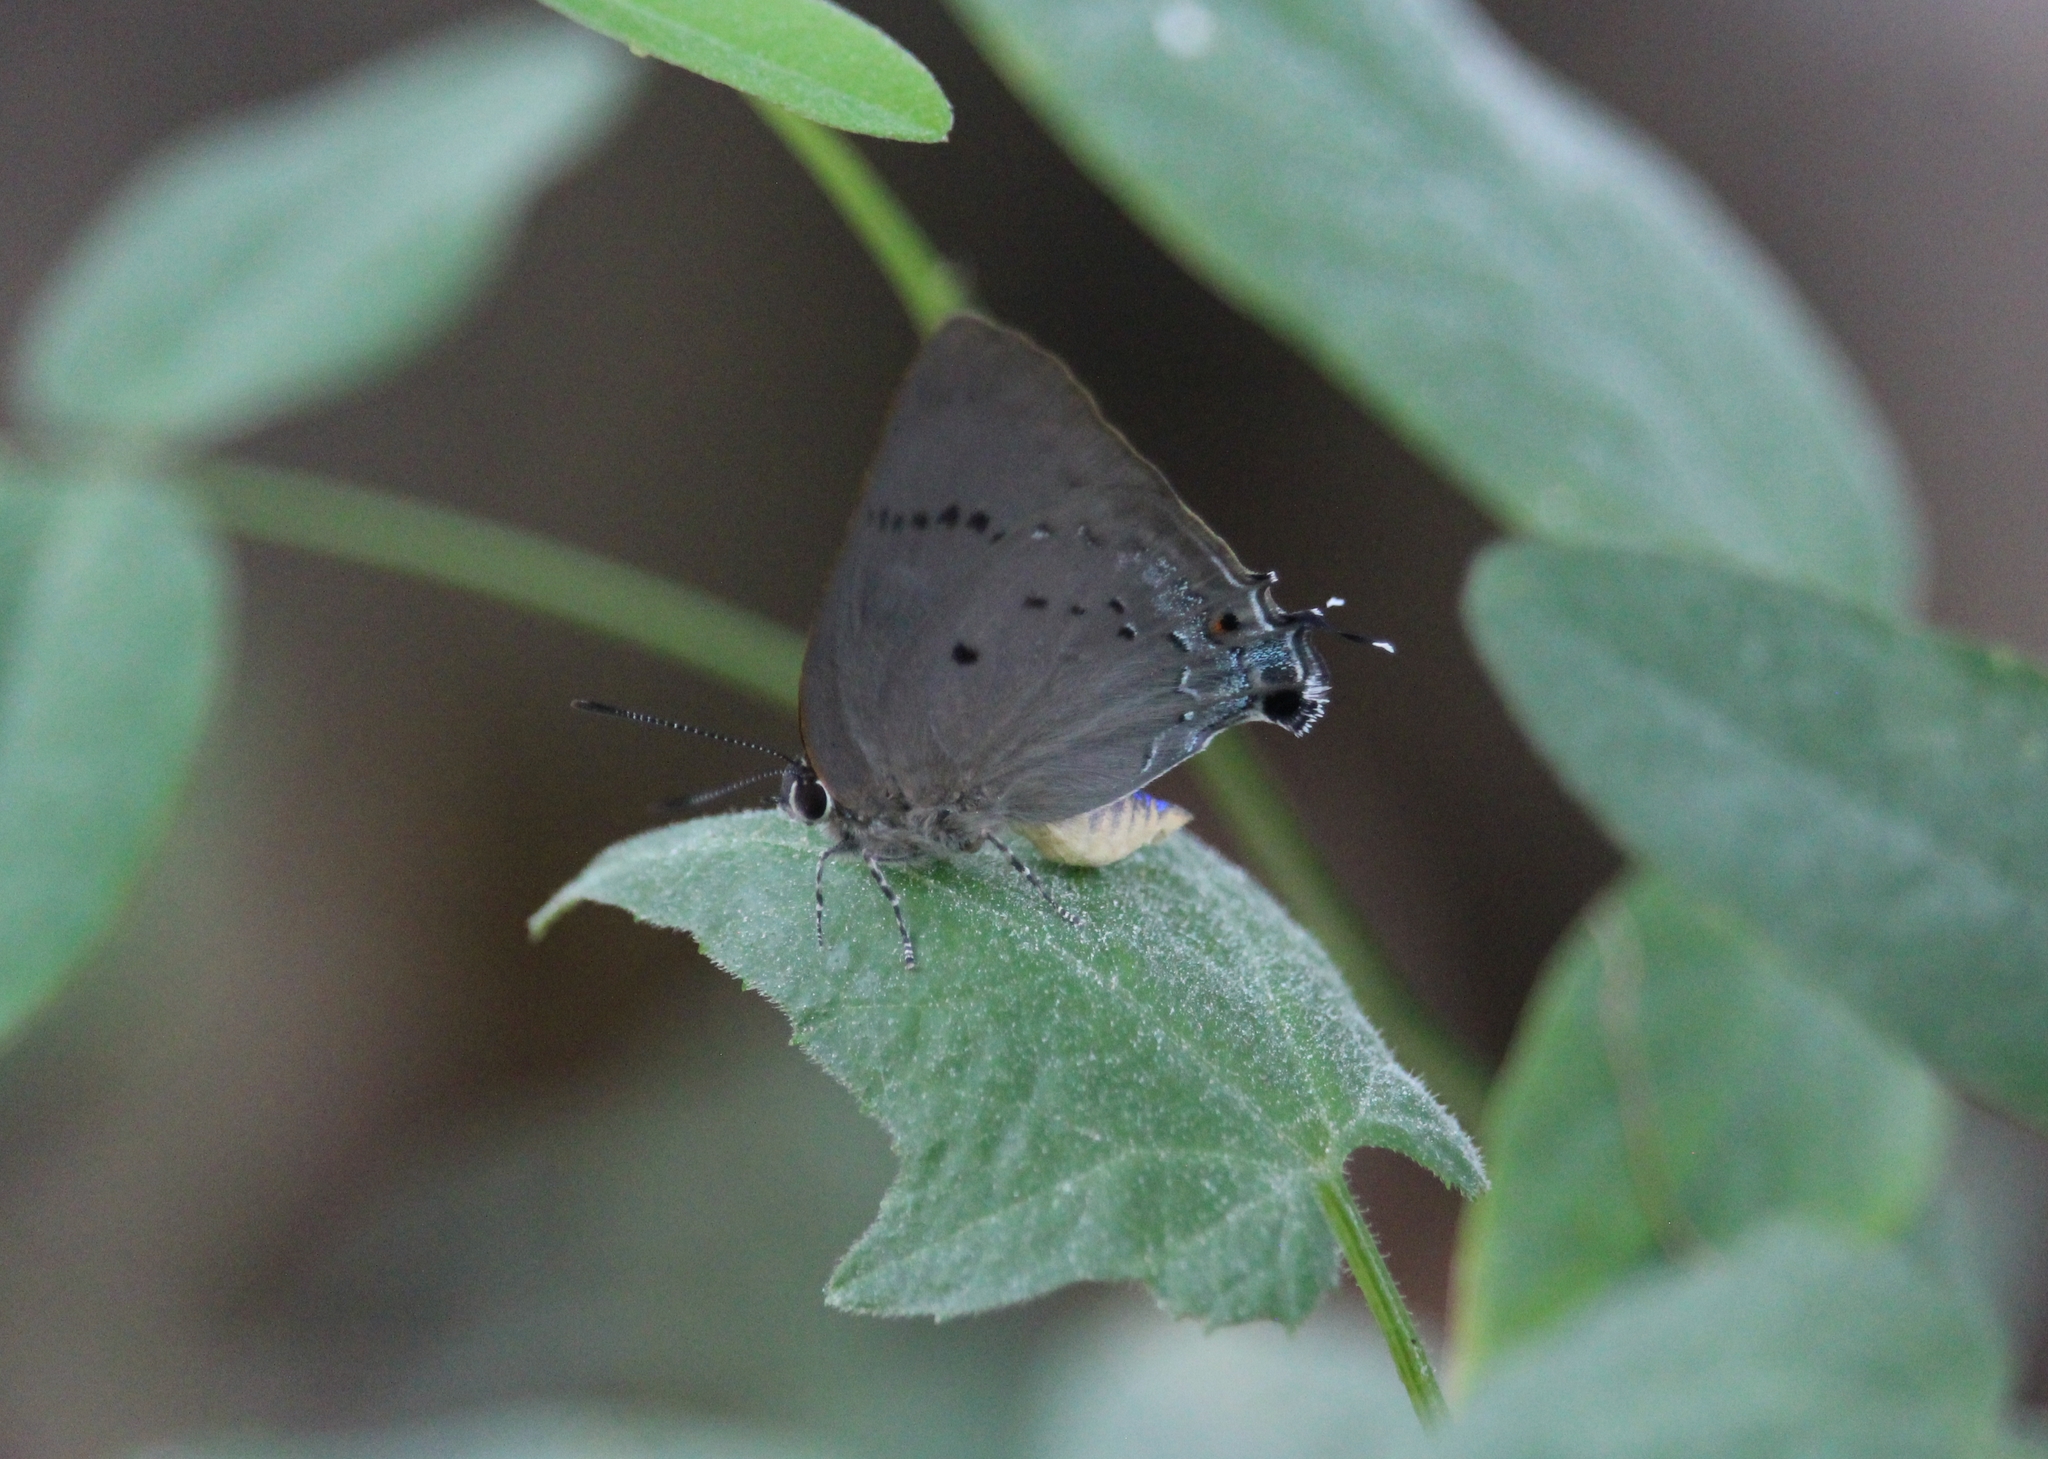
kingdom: Animalia
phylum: Arthropoda
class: Insecta
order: Lepidoptera
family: Lycaenidae
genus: Parrhasius
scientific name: Parrhasius polibetes
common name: Black-spot hairstreak
